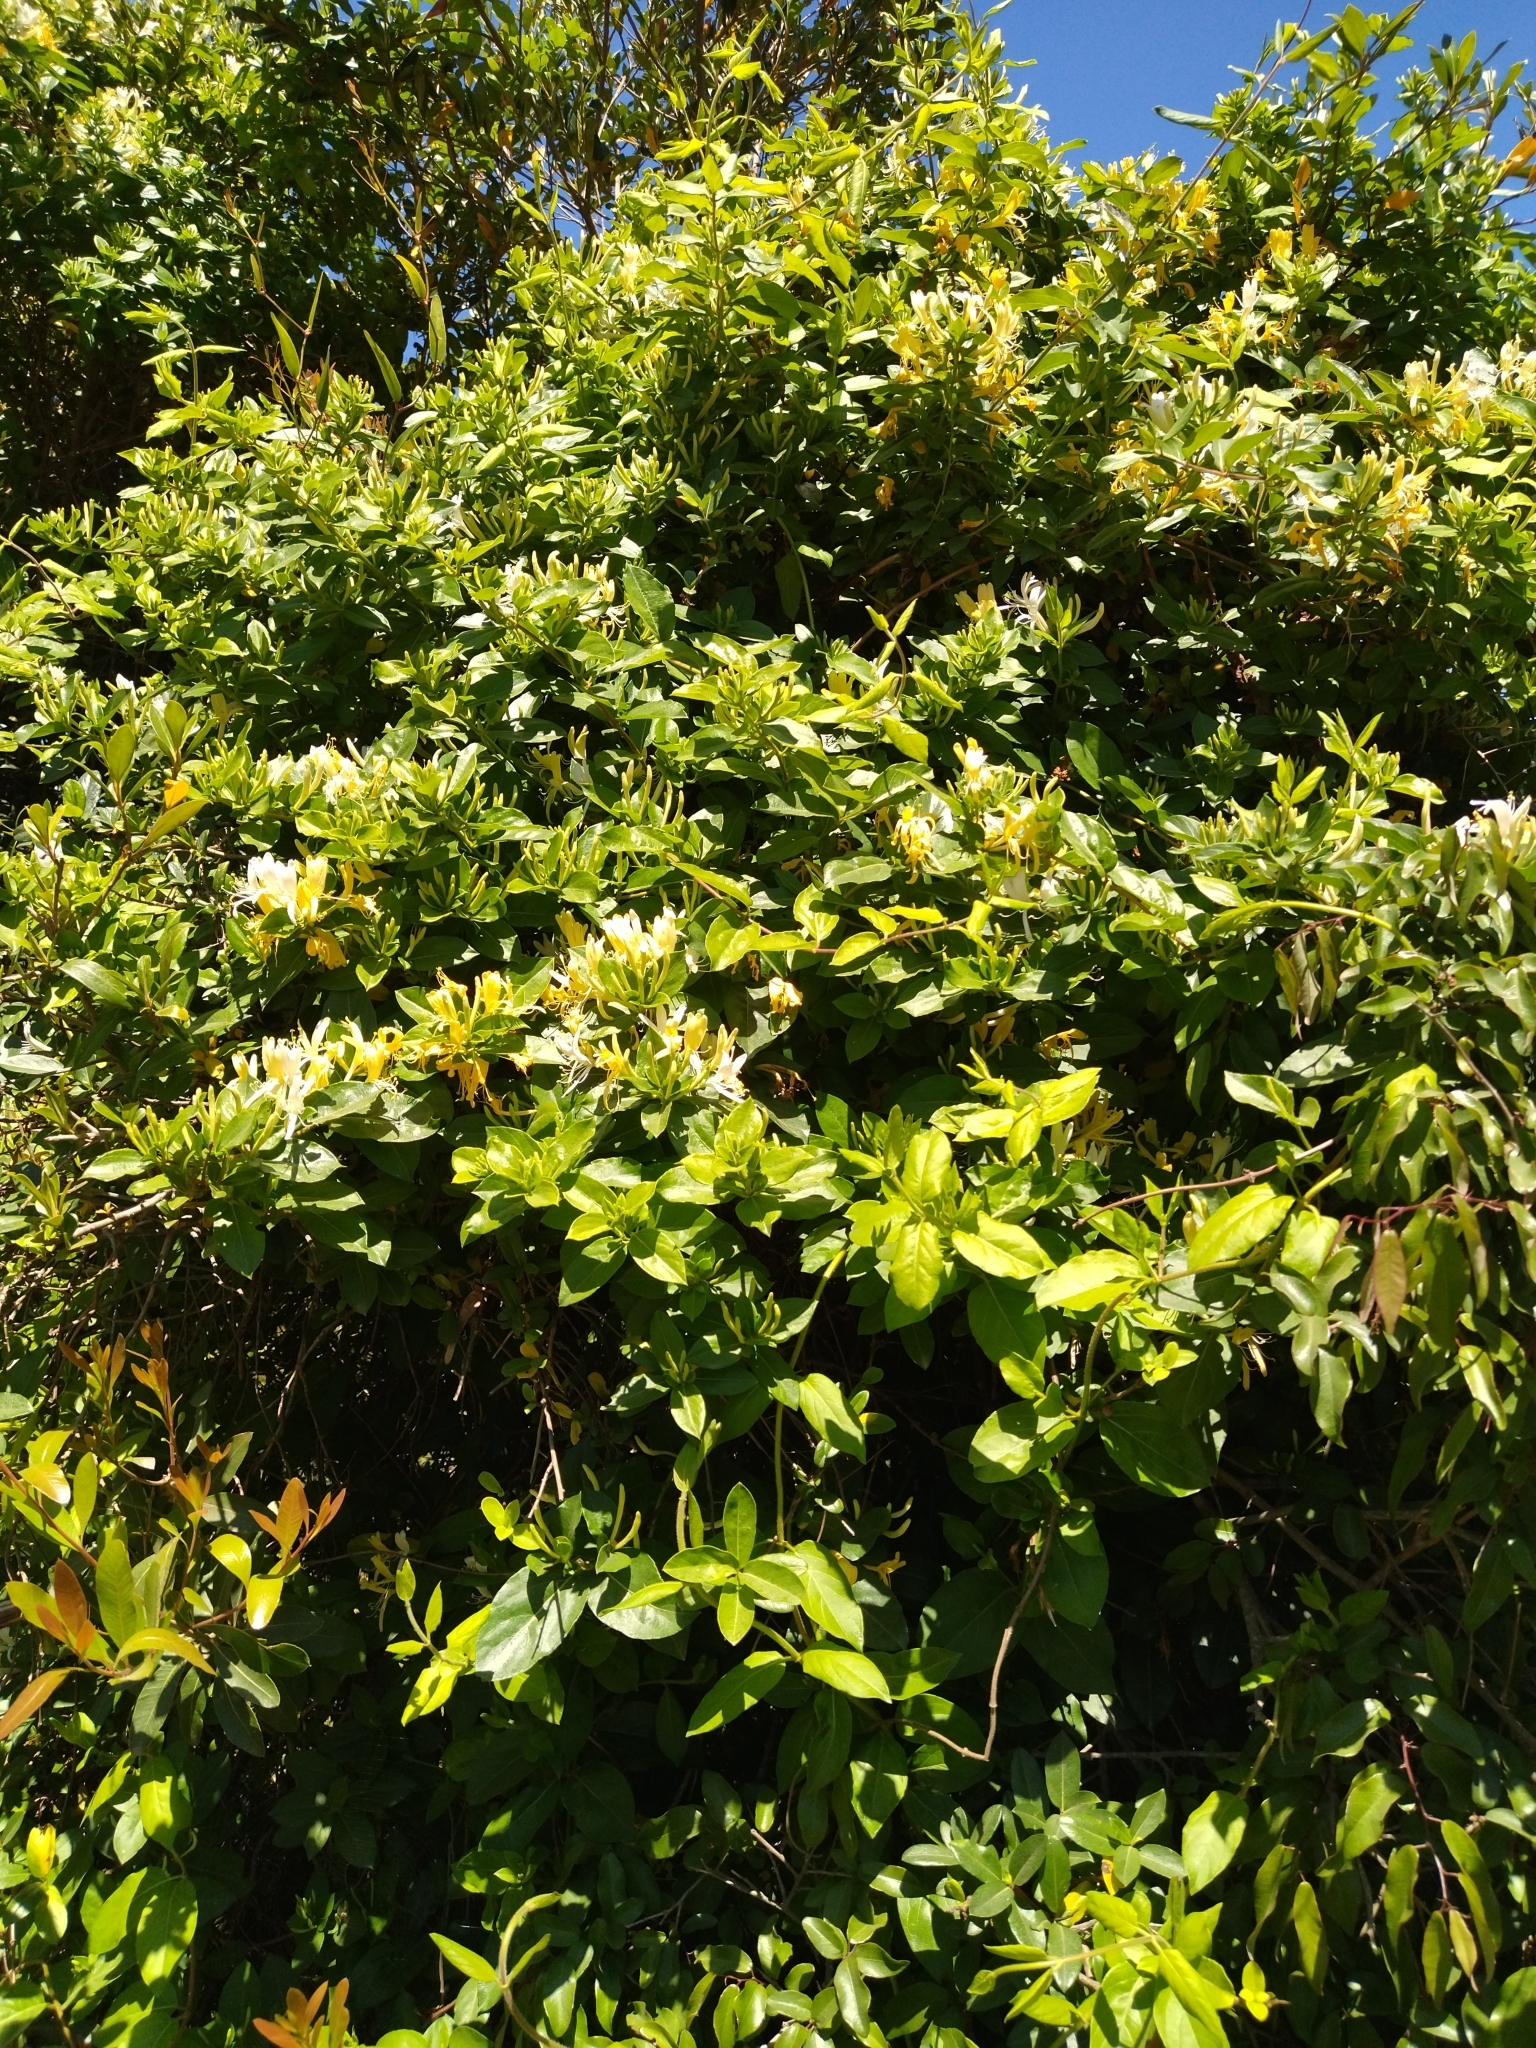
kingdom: Plantae
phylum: Tracheophyta
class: Magnoliopsida
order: Dipsacales
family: Caprifoliaceae
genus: Lonicera
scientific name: Lonicera japonica
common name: Japanese honeysuckle
